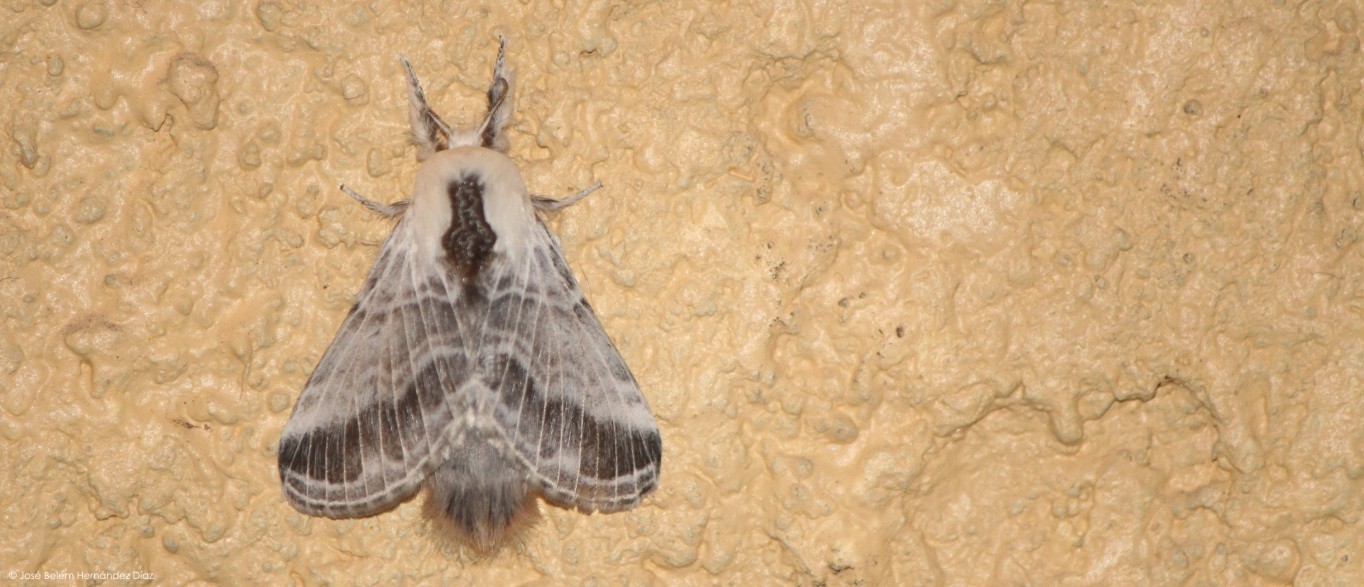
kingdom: Animalia
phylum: Arthropoda
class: Insecta
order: Lepidoptera
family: Lasiocampidae
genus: Tolype
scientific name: Tolype velleda
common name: Large tolype moth
